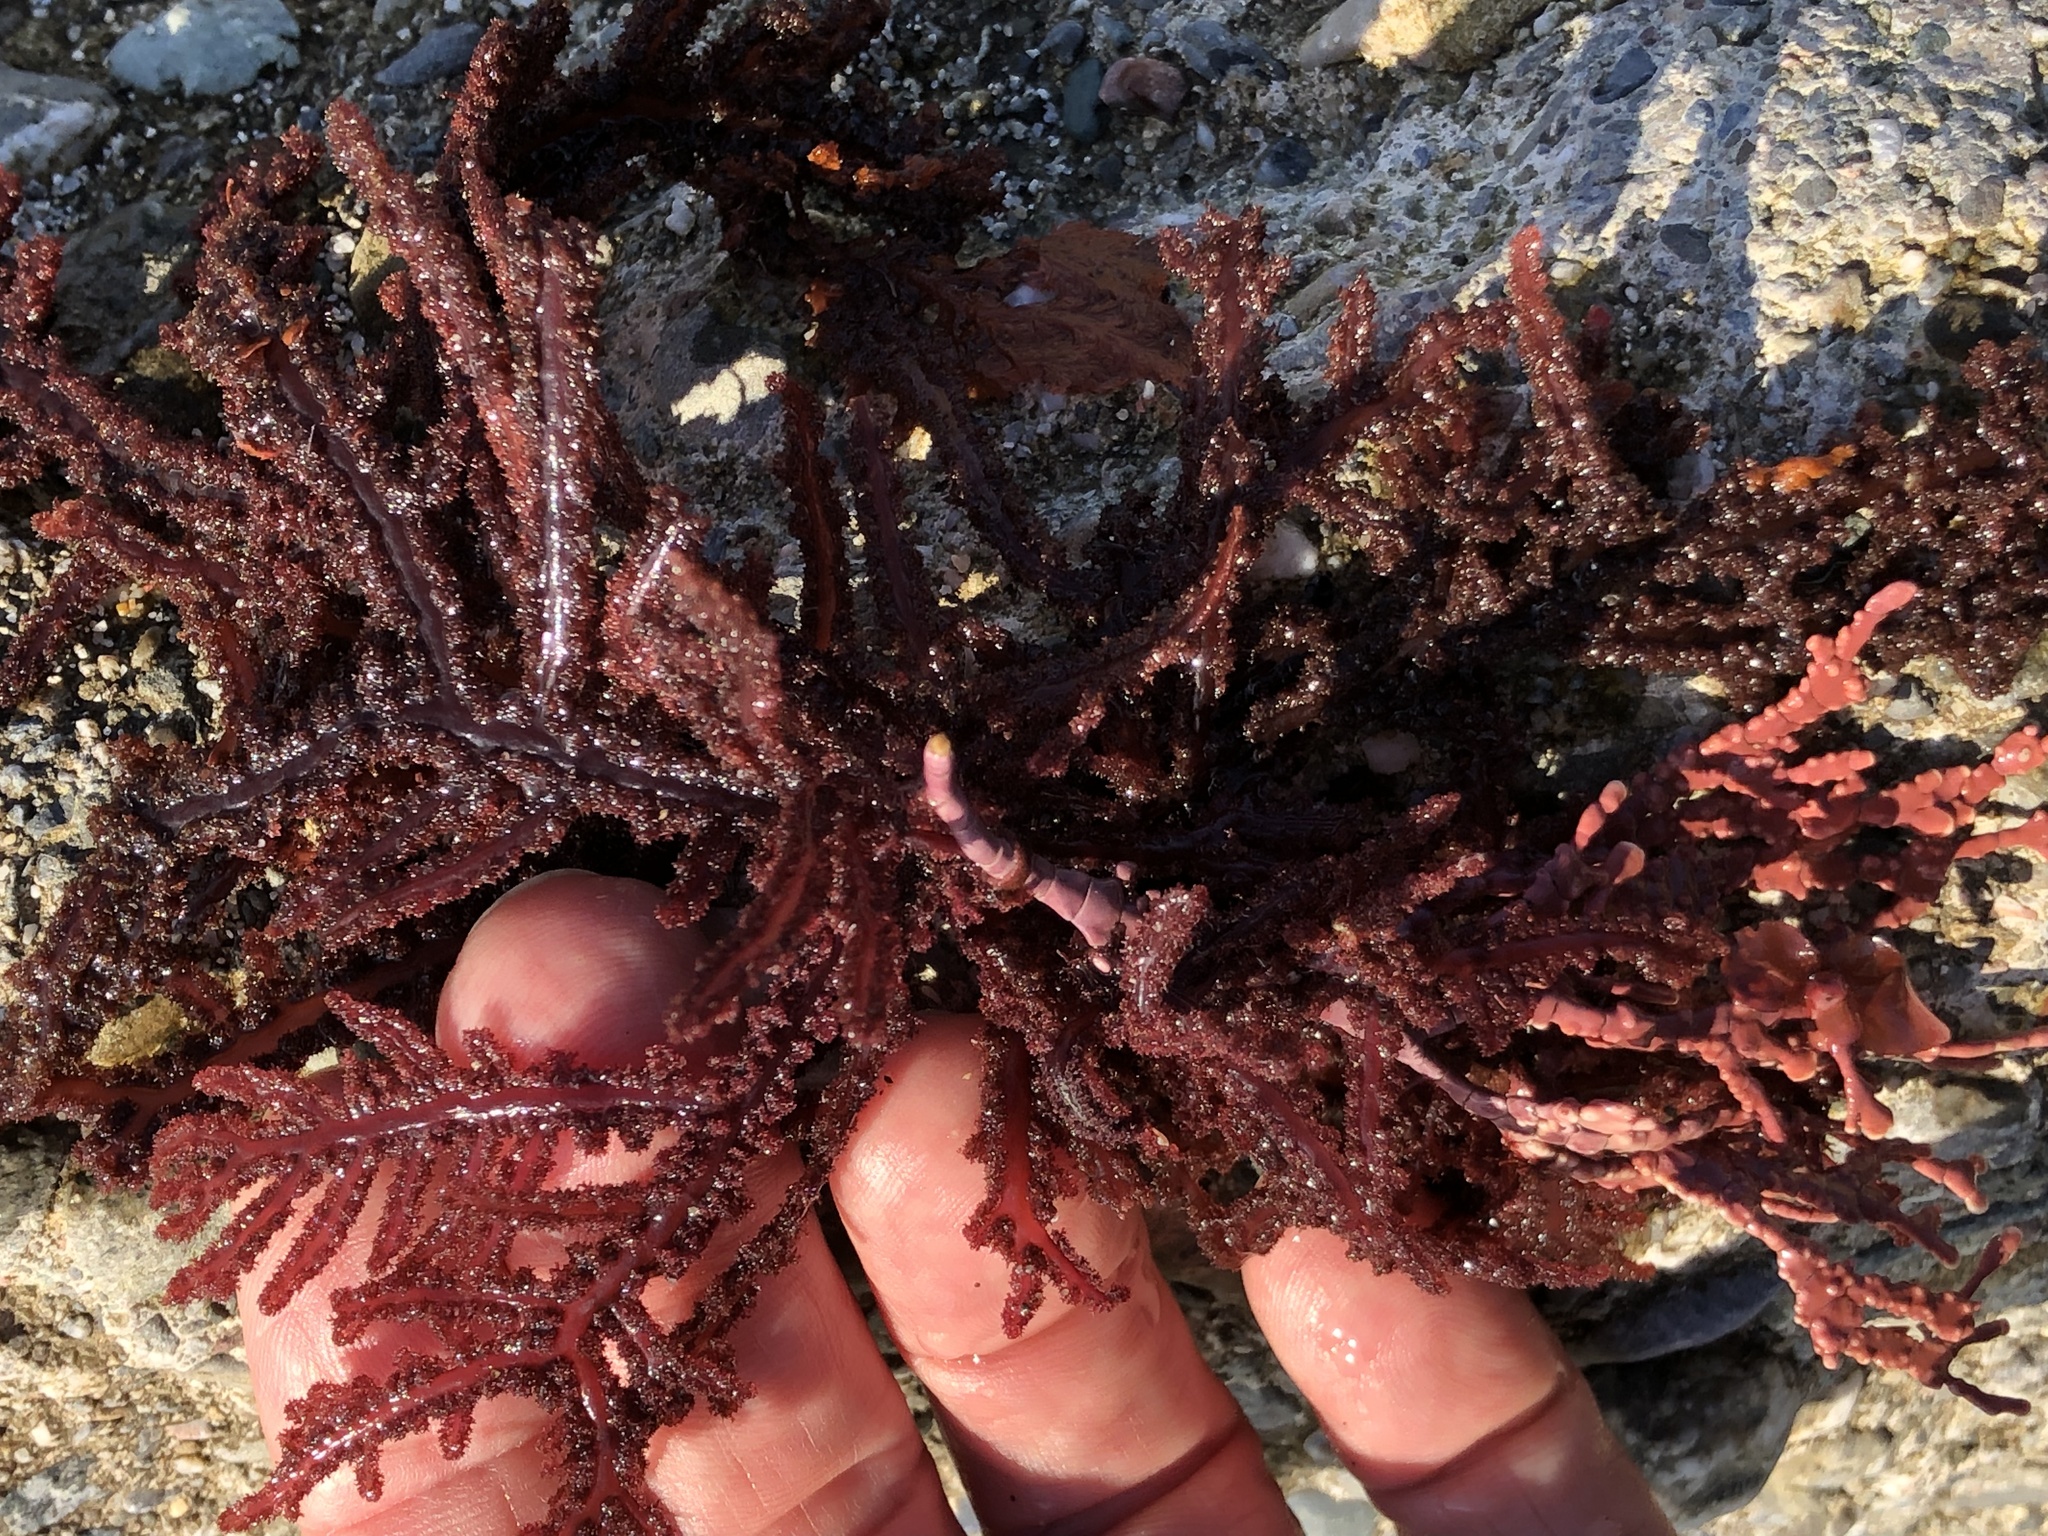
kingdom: Plantae
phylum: Rhodophyta
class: Florideophyceae
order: Ceramiales
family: Wrangeliaceae
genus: Neoptilota
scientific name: Neoptilota densa
